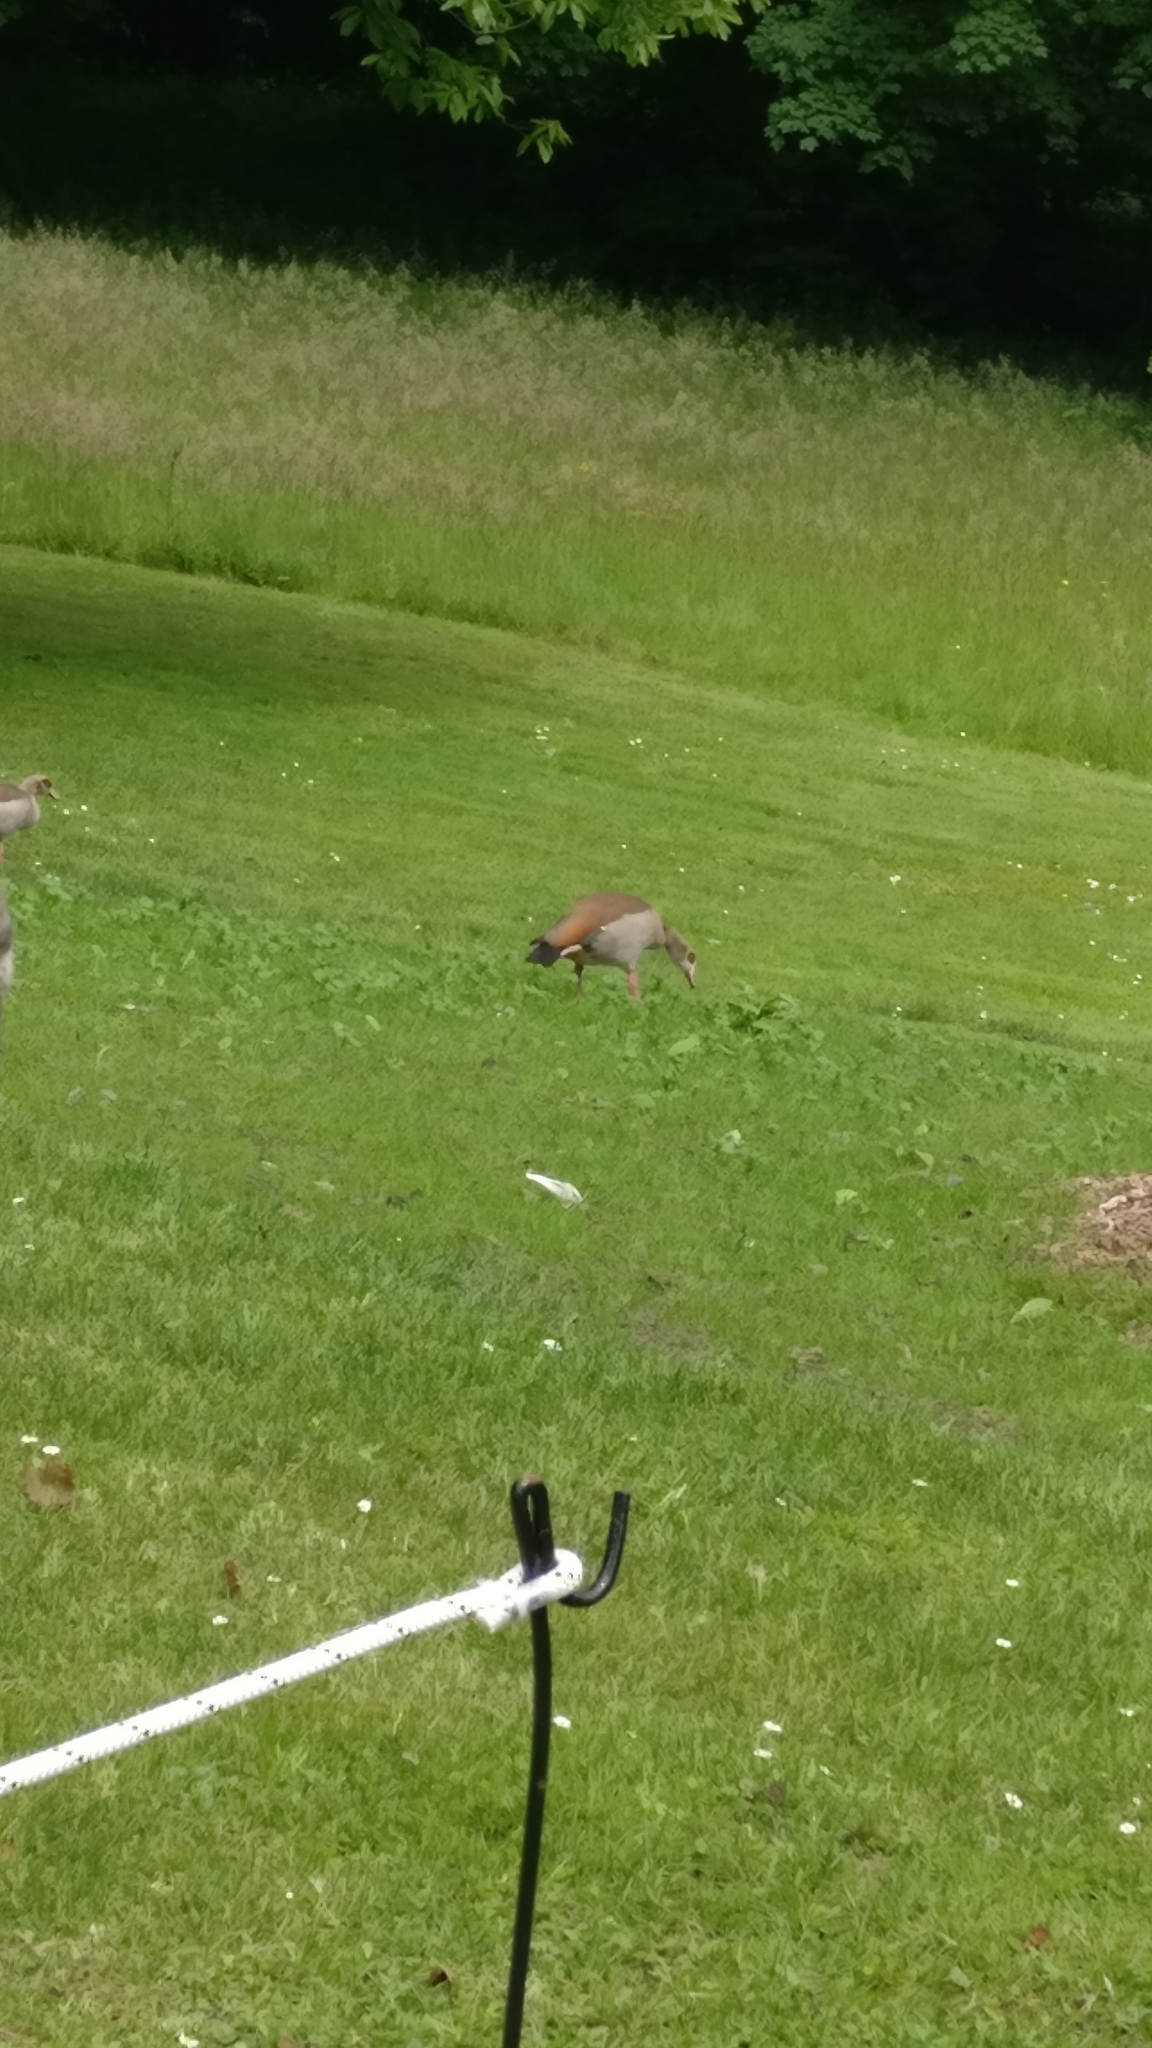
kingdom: Animalia
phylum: Chordata
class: Aves
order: Anseriformes
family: Anatidae
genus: Alopochen
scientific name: Alopochen aegyptiaca
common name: Egyptian goose
